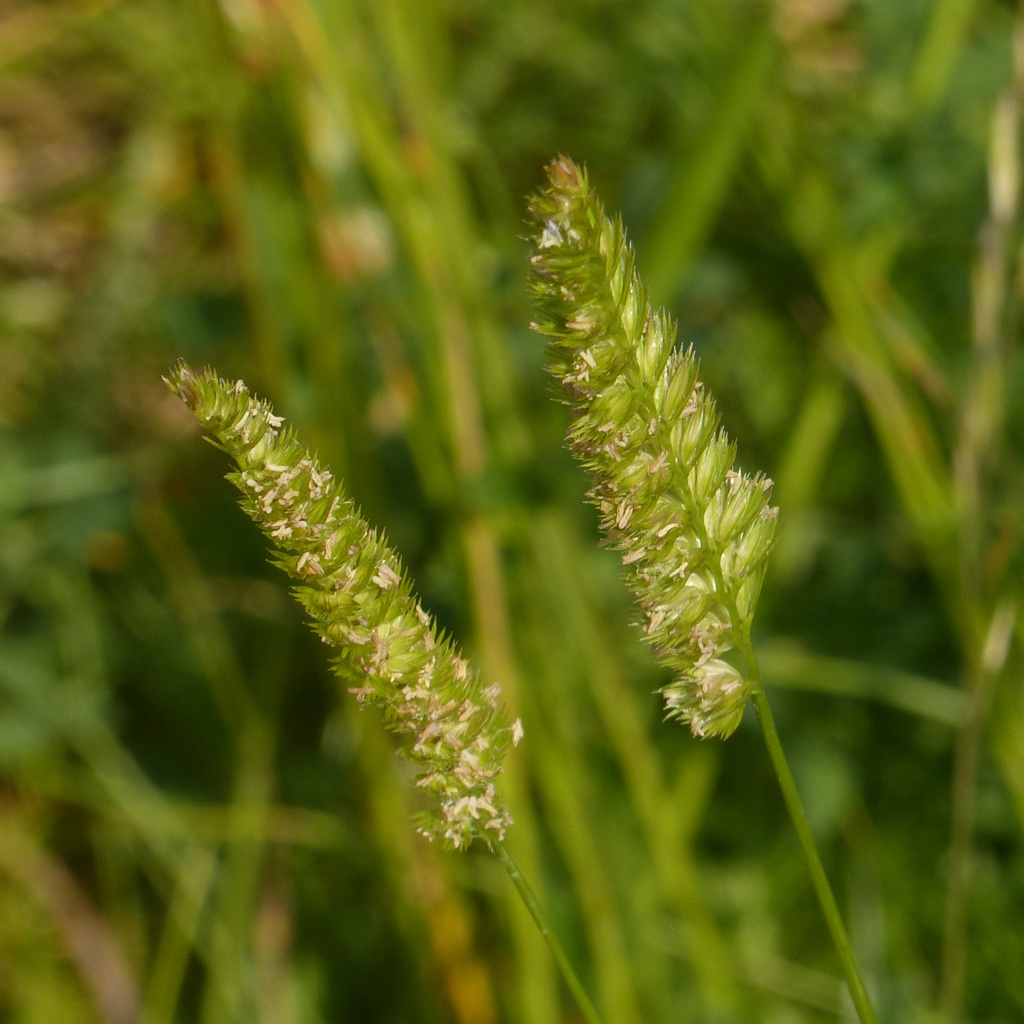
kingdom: Plantae
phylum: Tracheophyta
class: Liliopsida
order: Poales
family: Poaceae
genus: Cynosurus
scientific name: Cynosurus cristatus
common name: Crested dog's-tail
